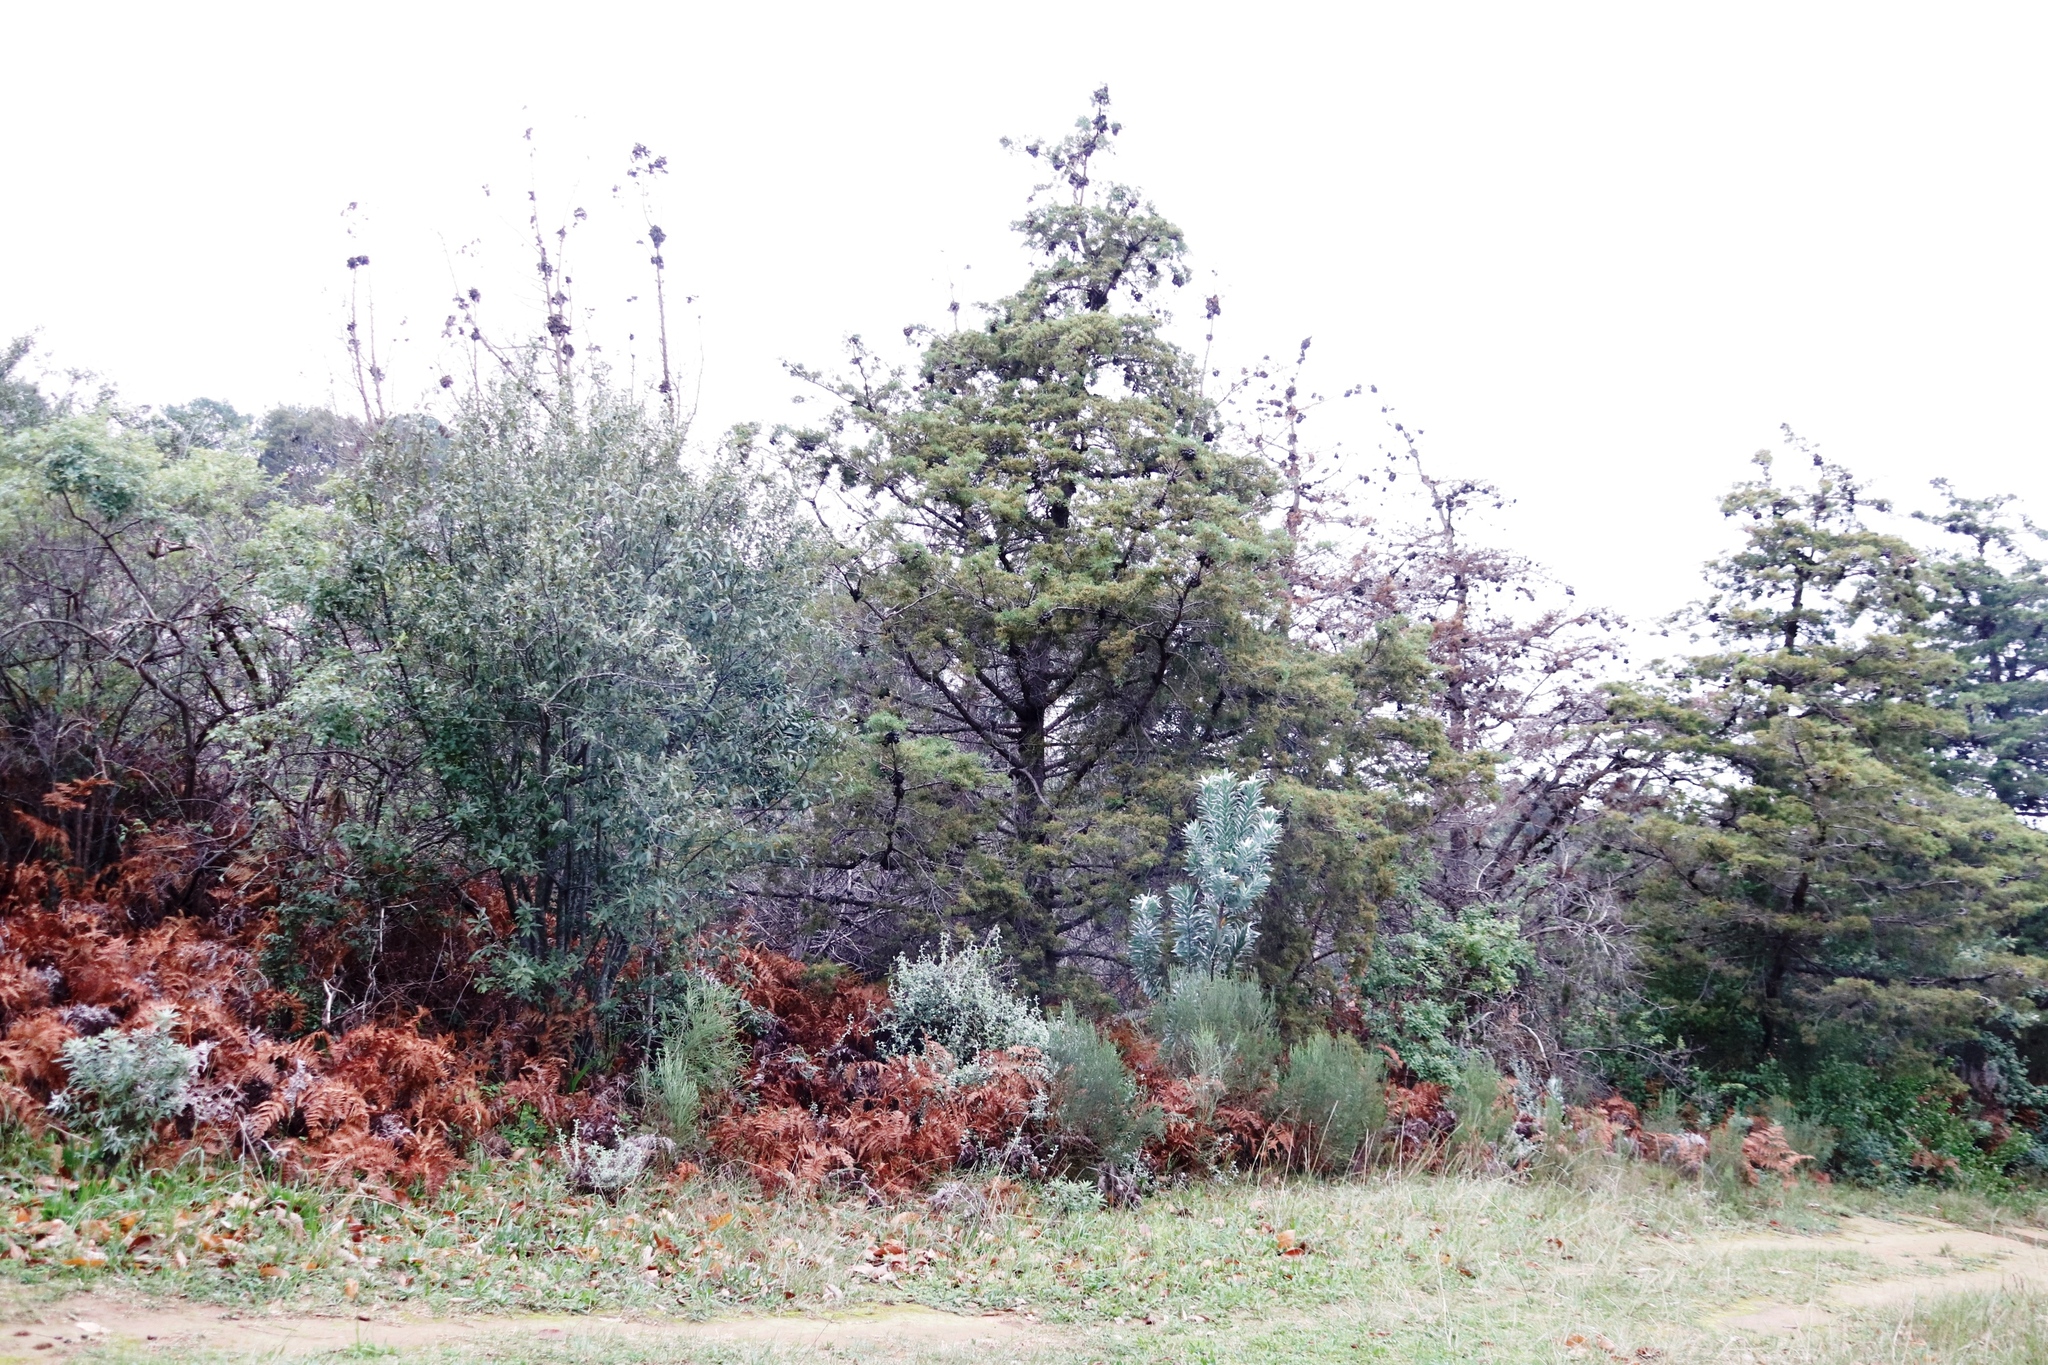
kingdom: Plantae
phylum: Tracheophyta
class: Pinopsida
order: Pinales
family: Cupressaceae
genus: Widdringtonia
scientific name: Widdringtonia schwarzii
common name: Baviaans cedar
